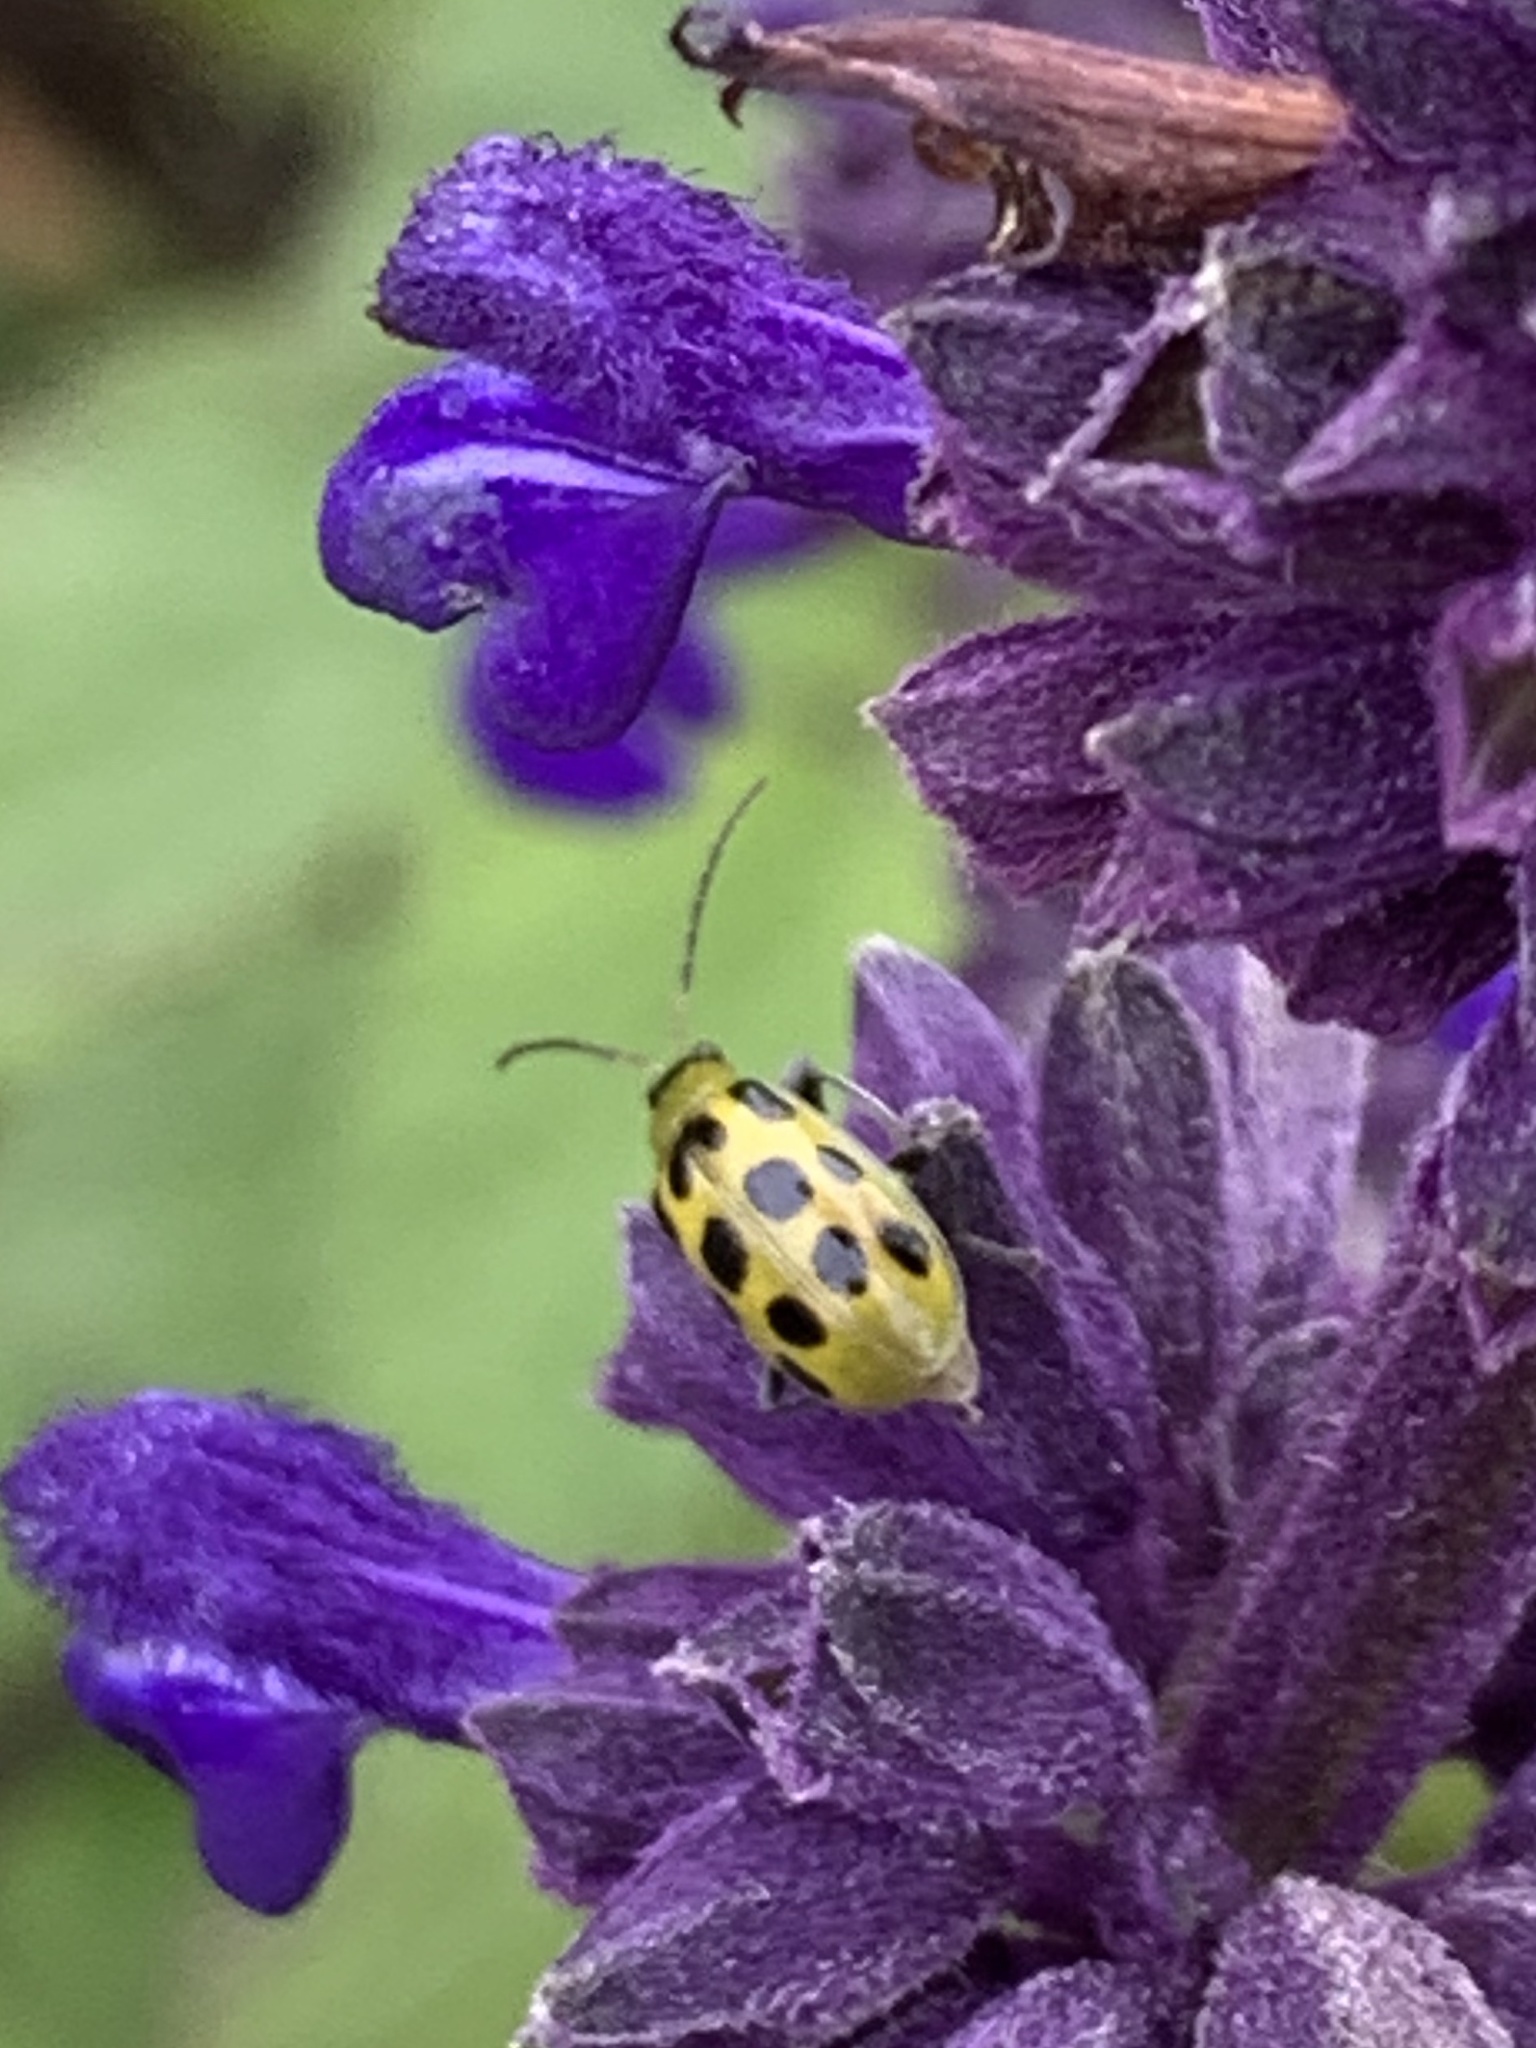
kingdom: Animalia
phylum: Arthropoda
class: Insecta
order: Coleoptera
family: Chrysomelidae
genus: Diabrotica
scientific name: Diabrotica undecimpunctata
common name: Spotted cucumber beetle
